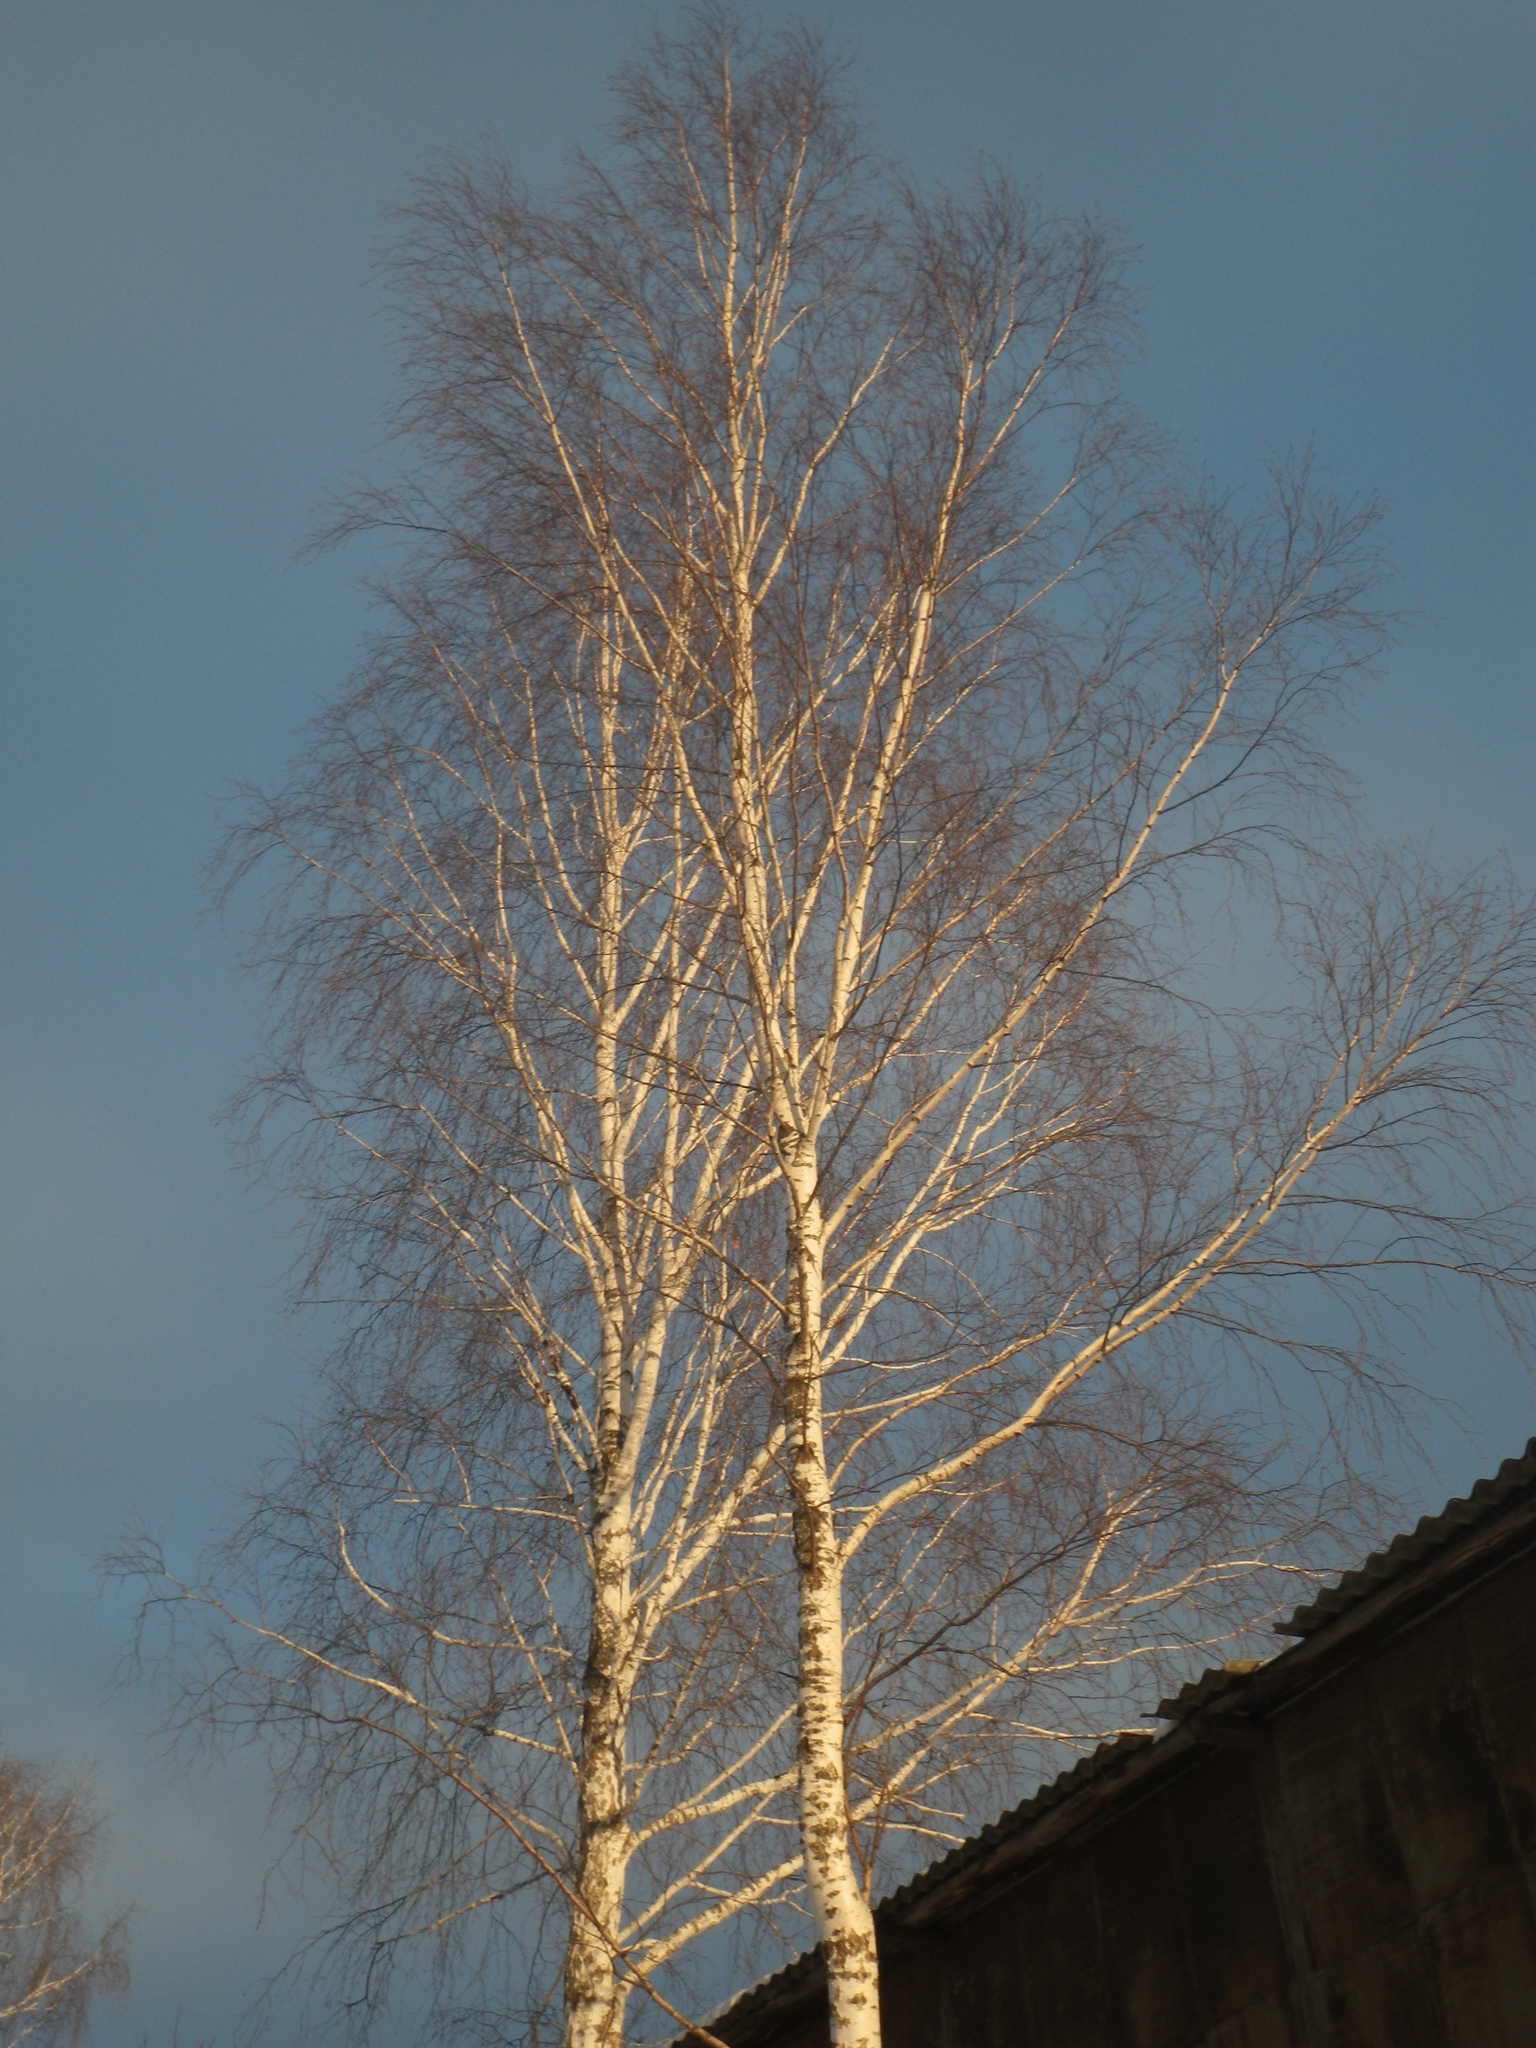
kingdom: Plantae
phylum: Tracheophyta
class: Magnoliopsida
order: Fagales
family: Betulaceae
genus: Betula
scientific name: Betula pendula
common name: Silver birch
